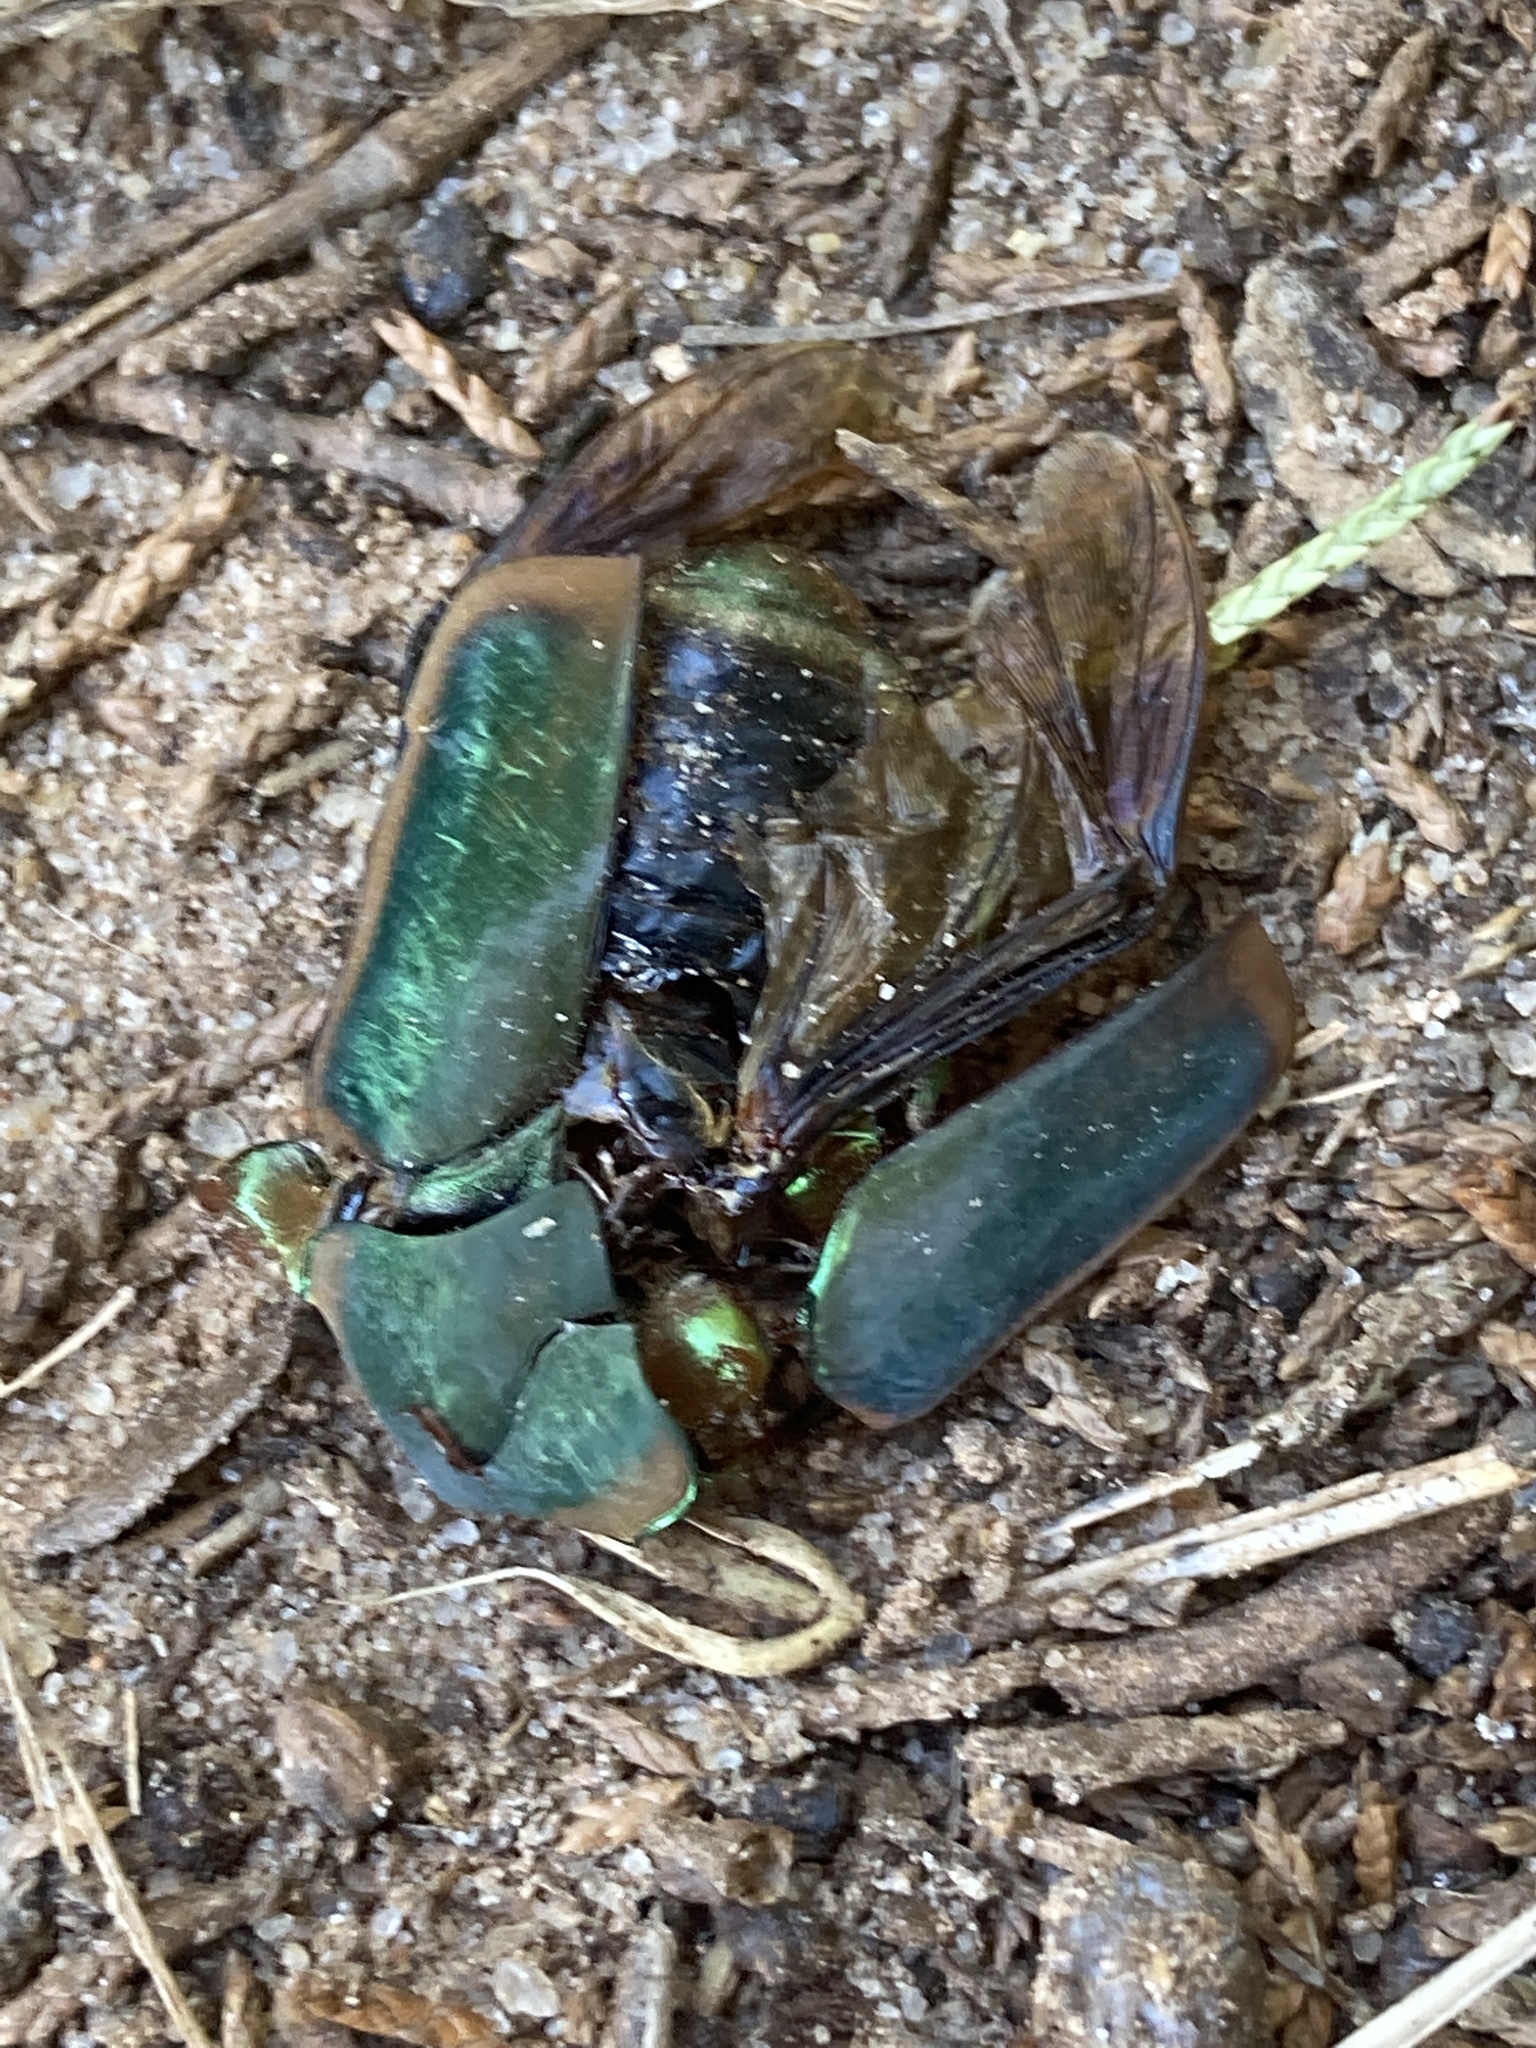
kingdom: Animalia
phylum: Arthropoda
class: Insecta
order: Coleoptera
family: Scarabaeidae
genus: Cotinis
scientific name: Cotinis nitida
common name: Common green june beetle
